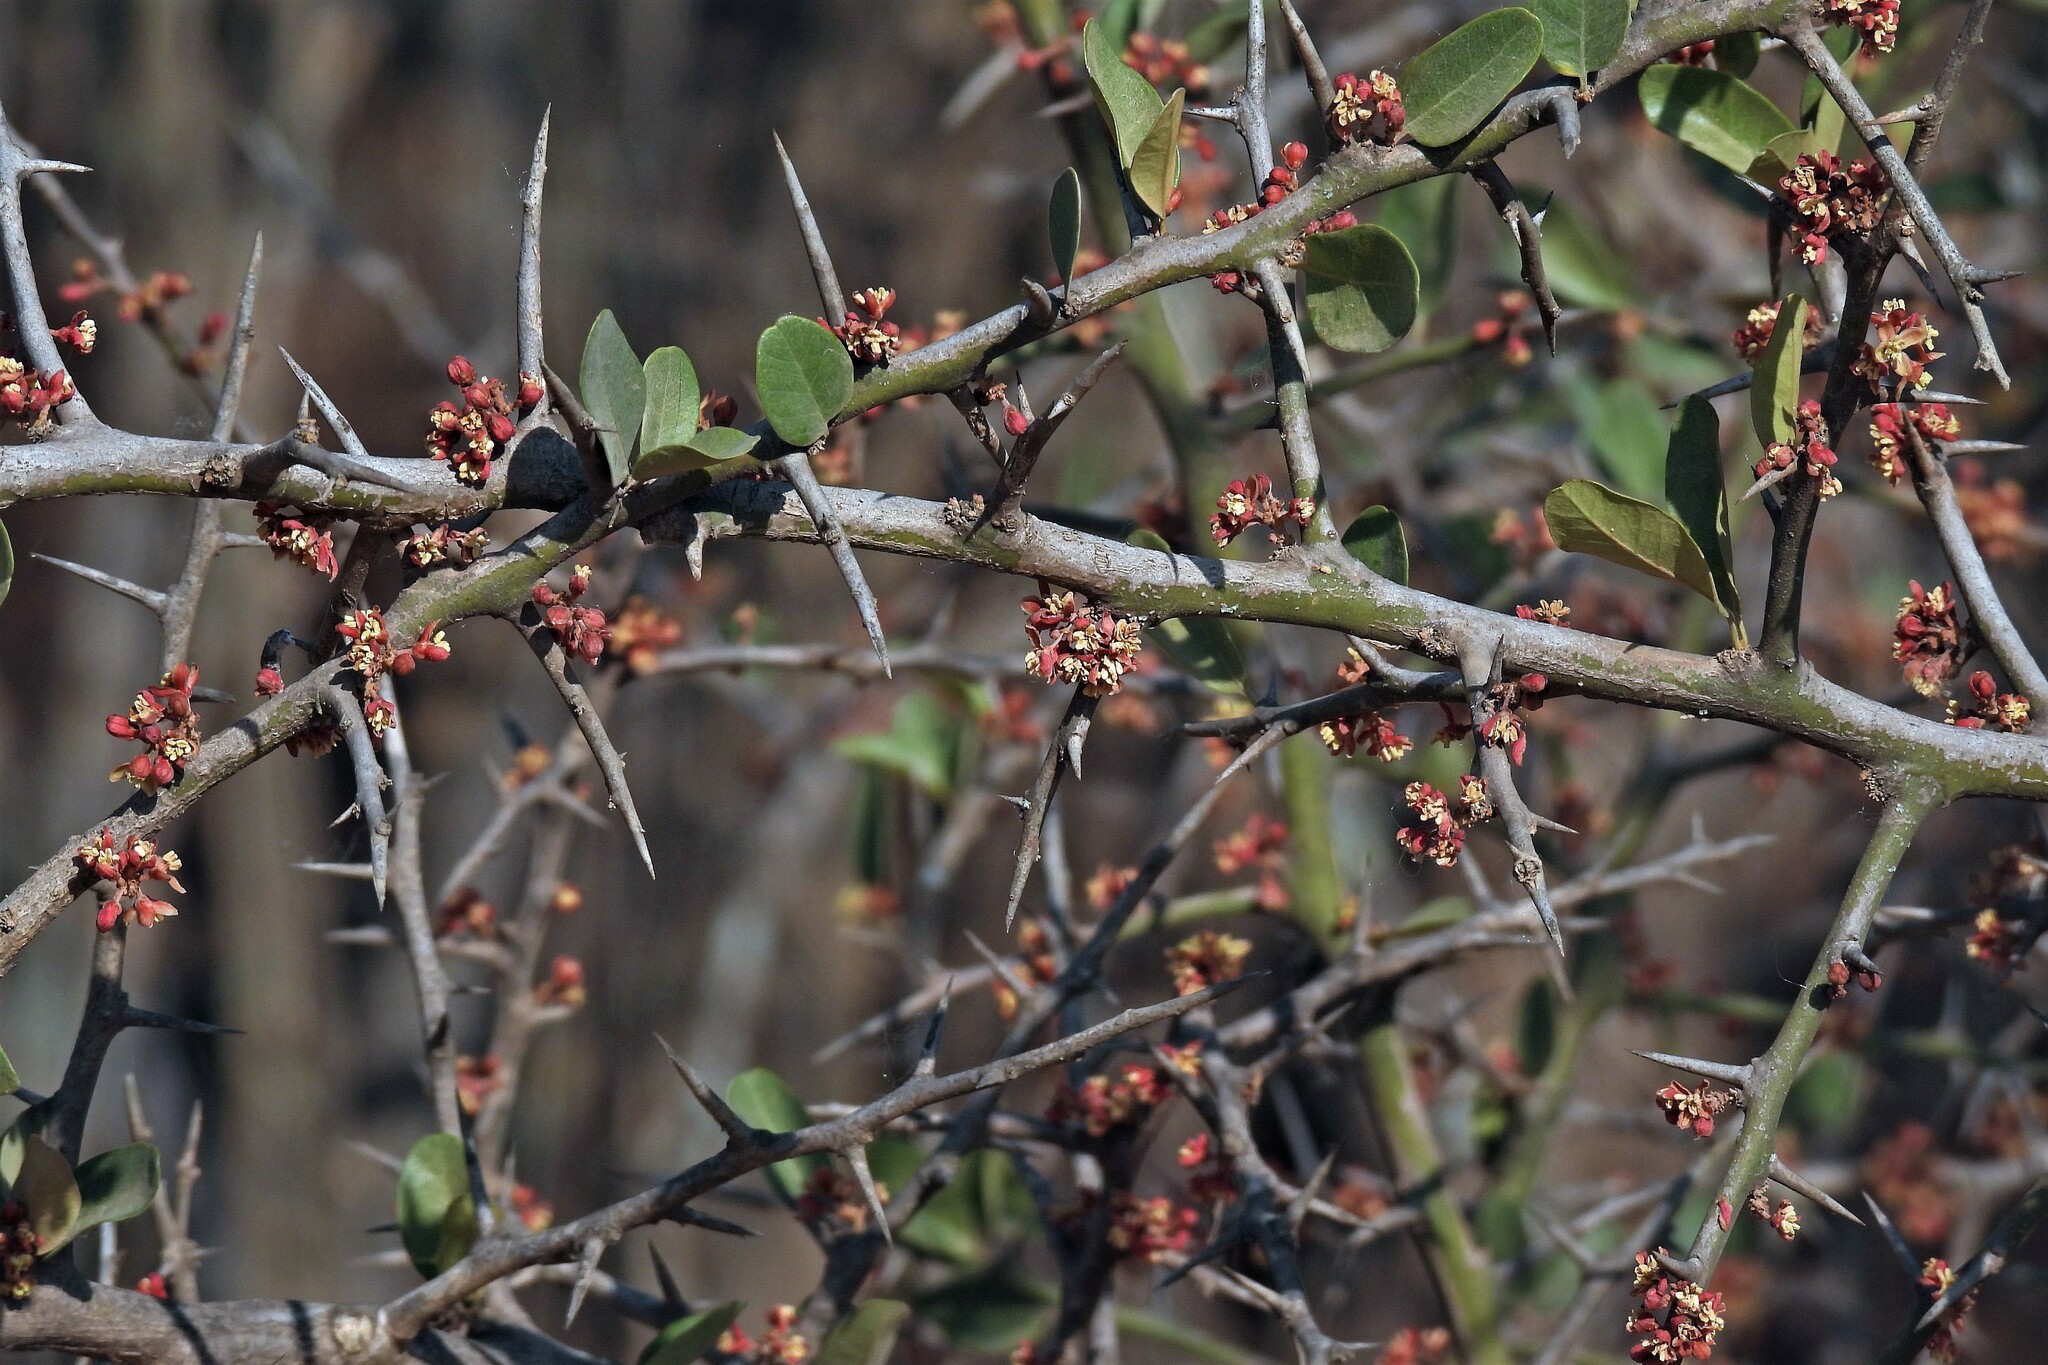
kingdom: Plantae
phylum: Tracheophyta
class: Magnoliopsida
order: Sapindales
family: Simaroubaceae
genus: Castela
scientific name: Castela coccinea
